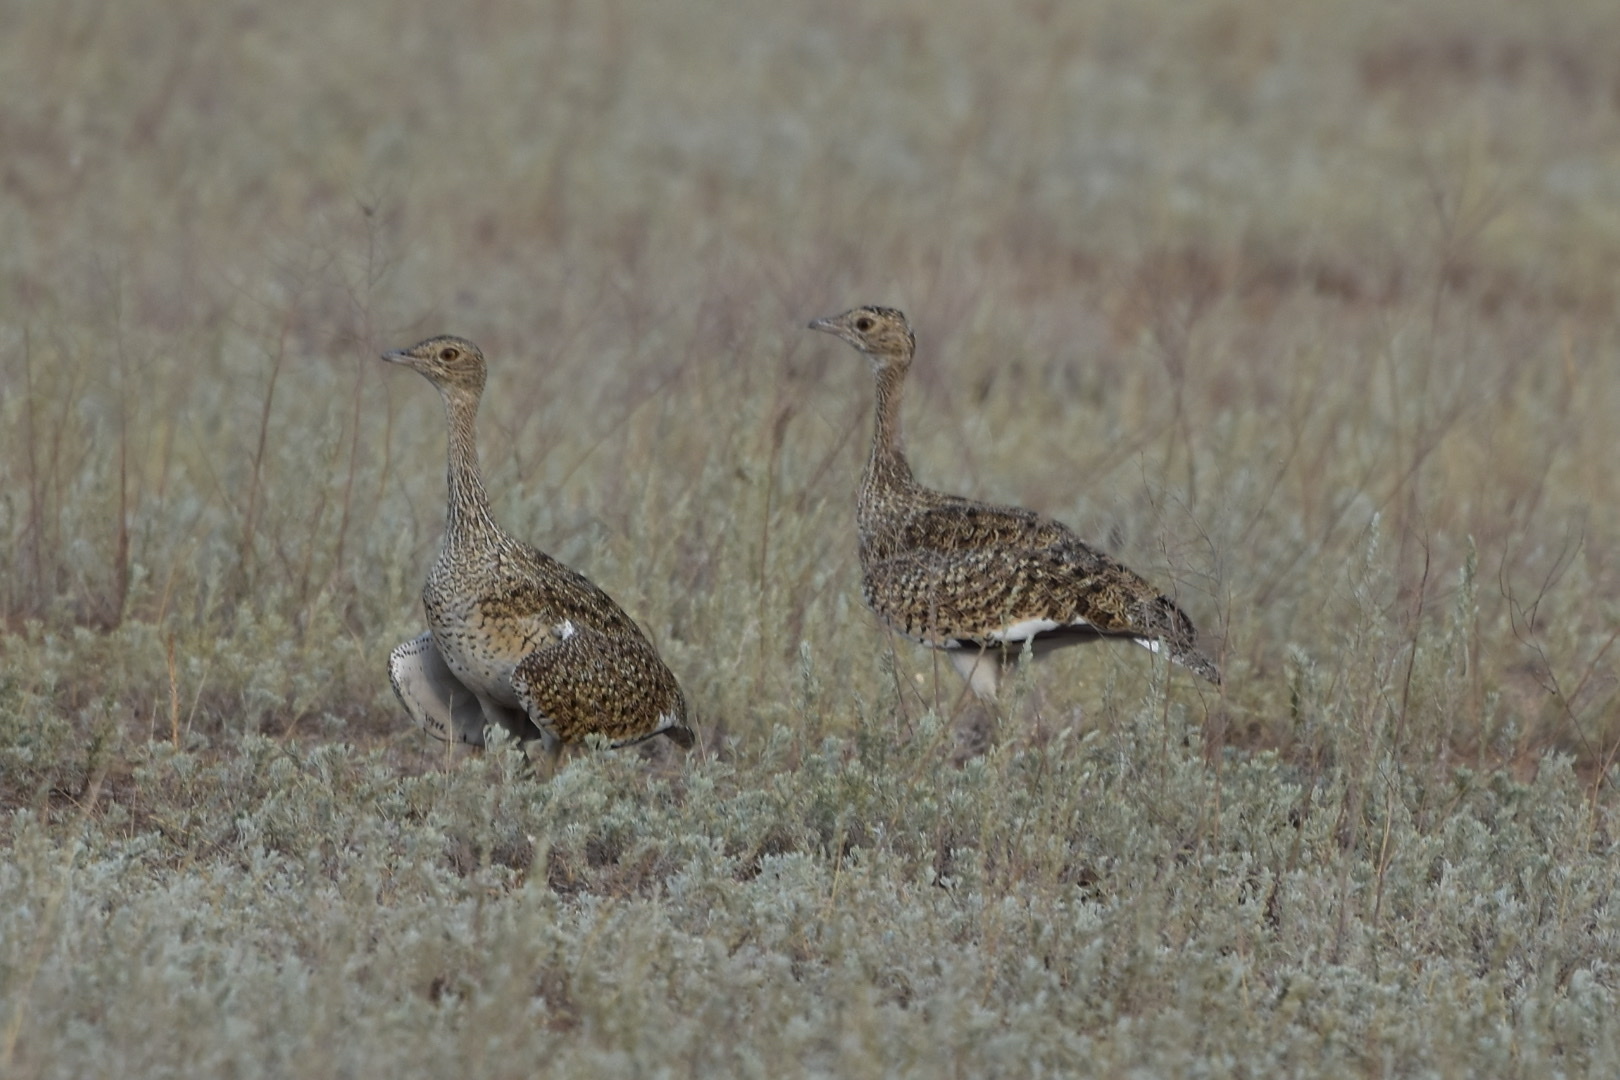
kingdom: Animalia
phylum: Chordata
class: Aves
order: Otidiformes
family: Otididae
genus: Tetrax
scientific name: Tetrax tetrax
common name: Little bustard
